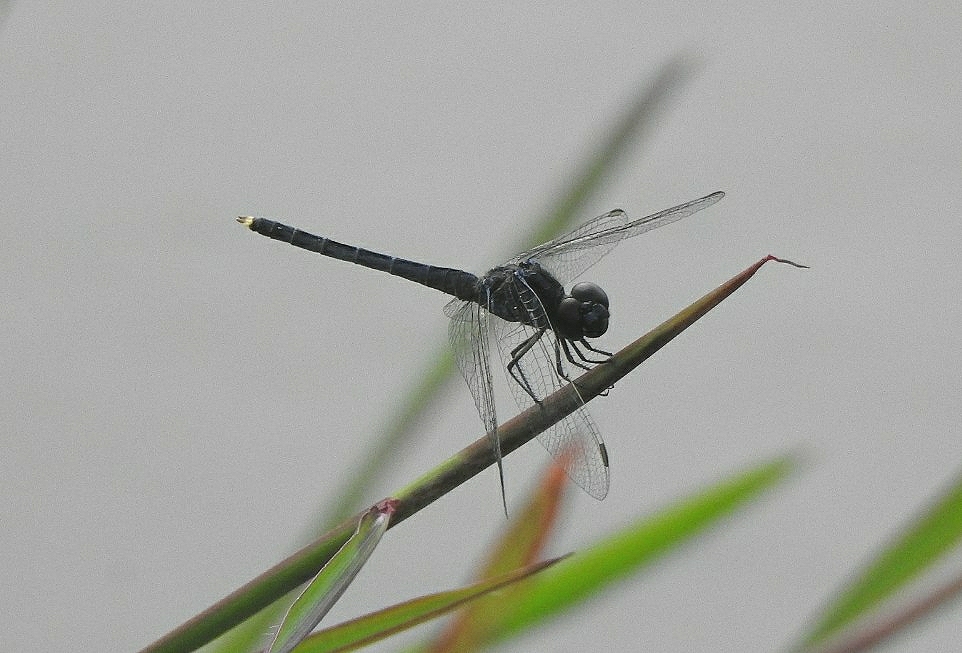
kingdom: Animalia
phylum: Arthropoda
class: Insecta
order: Odonata
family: Libellulidae
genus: Indothemis
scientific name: Indothemis carnatica
